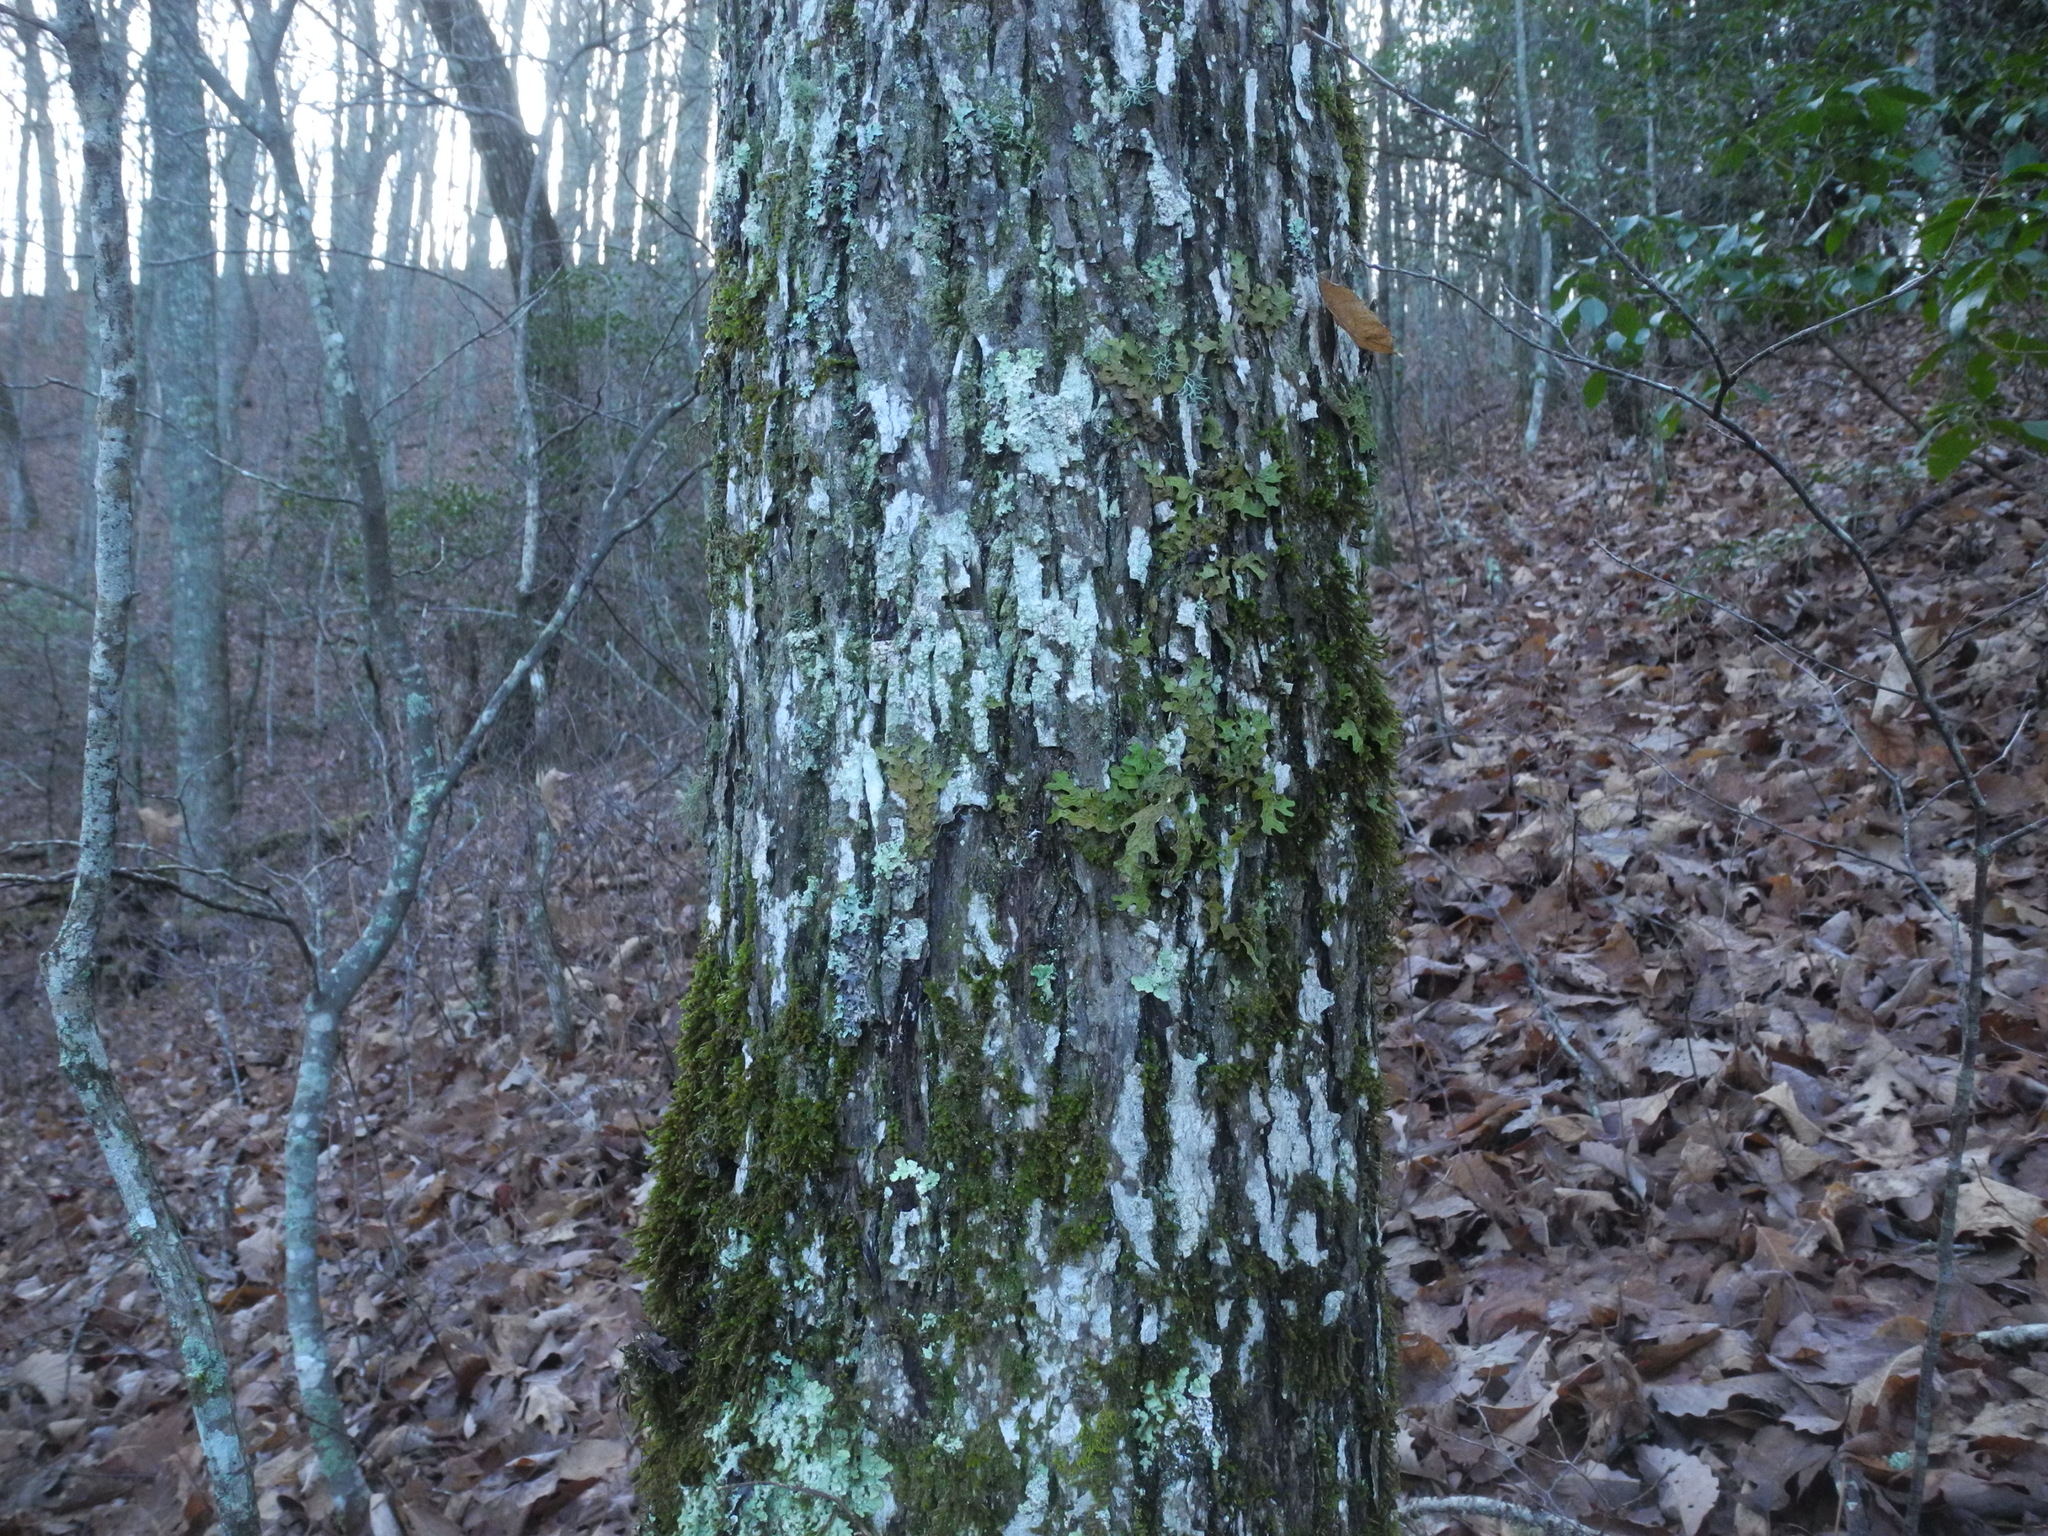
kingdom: Fungi
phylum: Ascomycota
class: Lecanoromycetes
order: Peltigerales
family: Lobariaceae
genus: Lobaria
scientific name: Lobaria pulmonaria
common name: Lungwort
